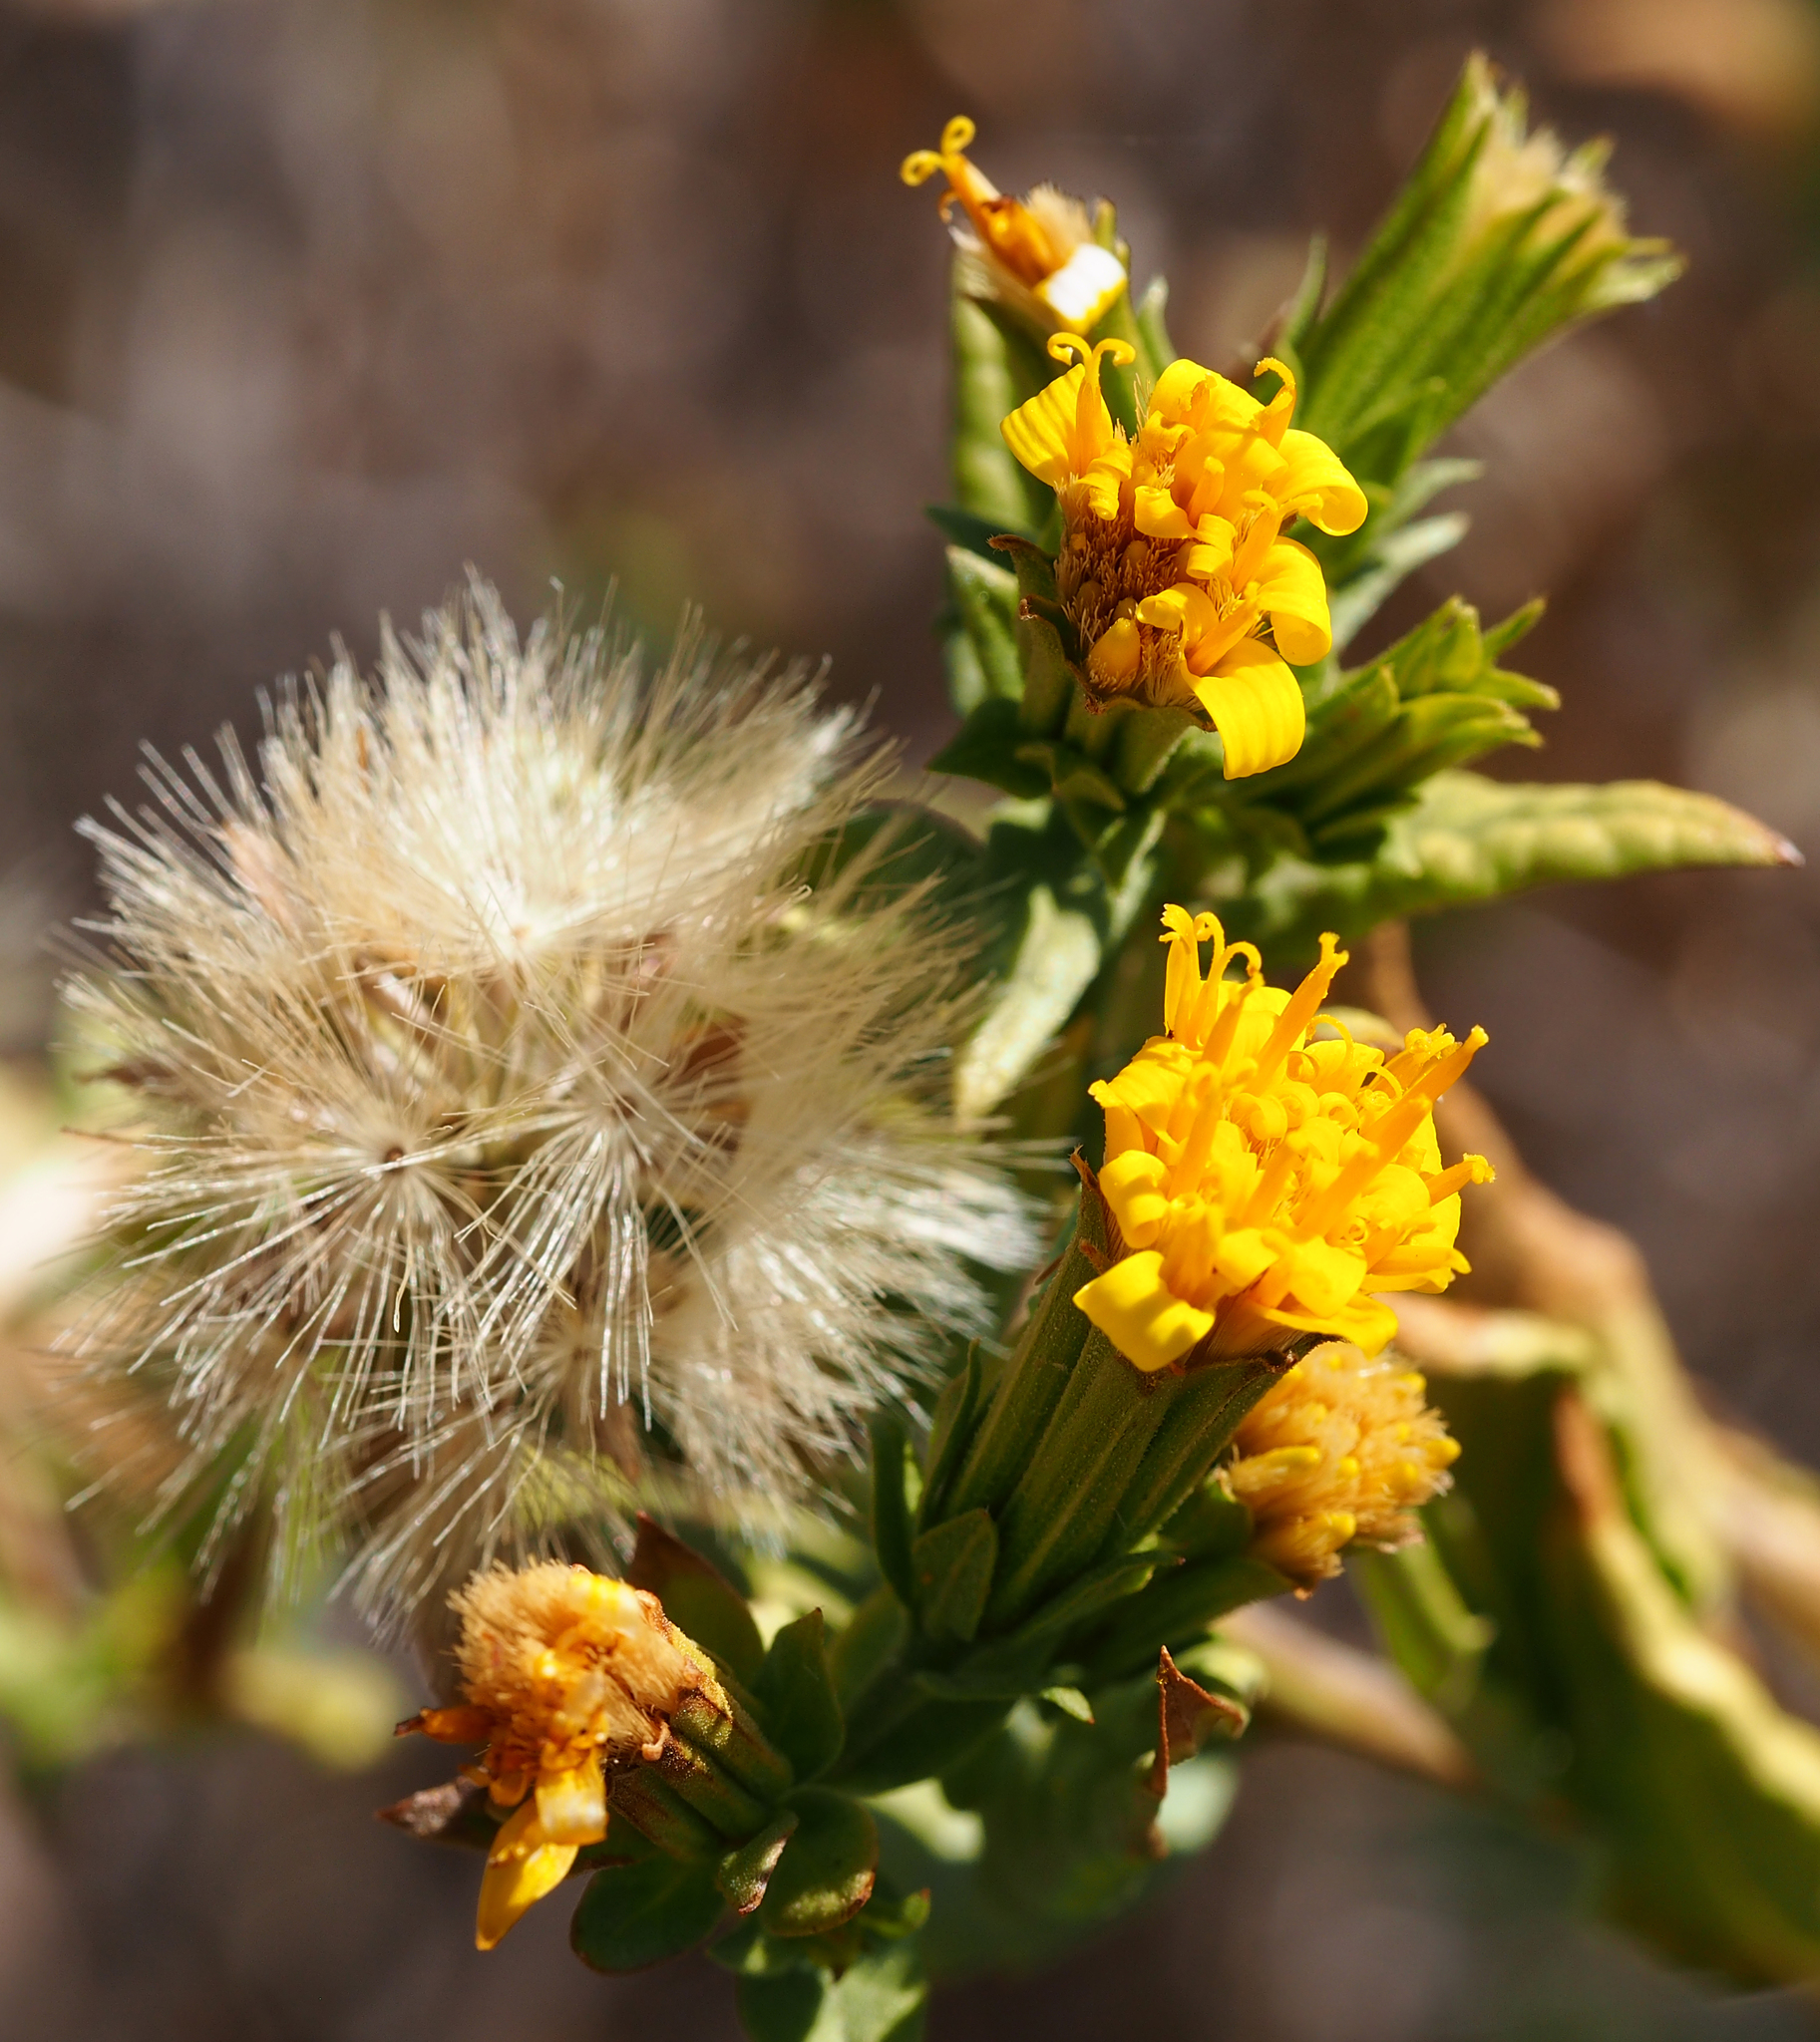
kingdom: Plantae
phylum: Tracheophyta
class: Magnoliopsida
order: Asterales
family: Asteraceae
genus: Trixis
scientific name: Trixis californica
